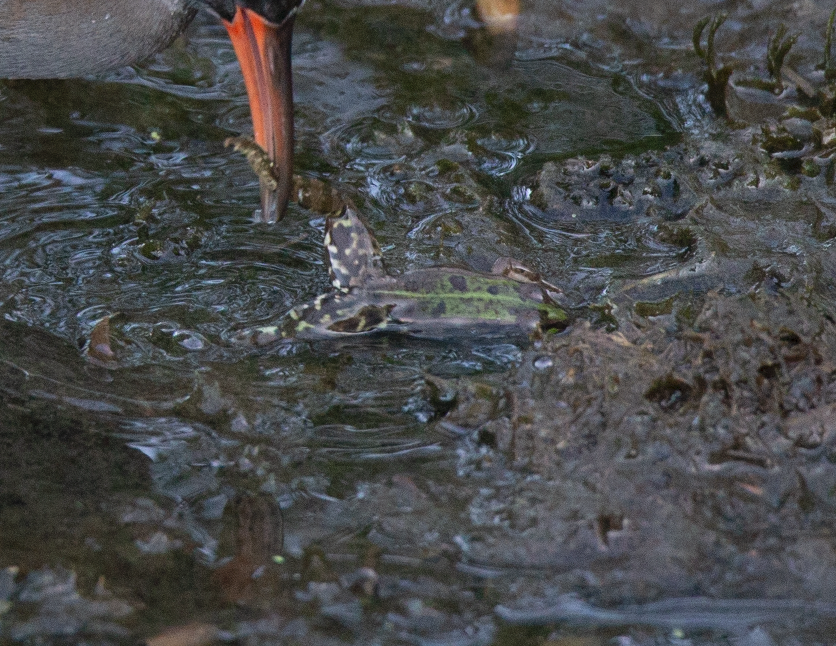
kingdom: Animalia
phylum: Chordata
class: Amphibia
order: Anura
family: Ranidae
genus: Pelophylax
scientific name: Pelophylax
